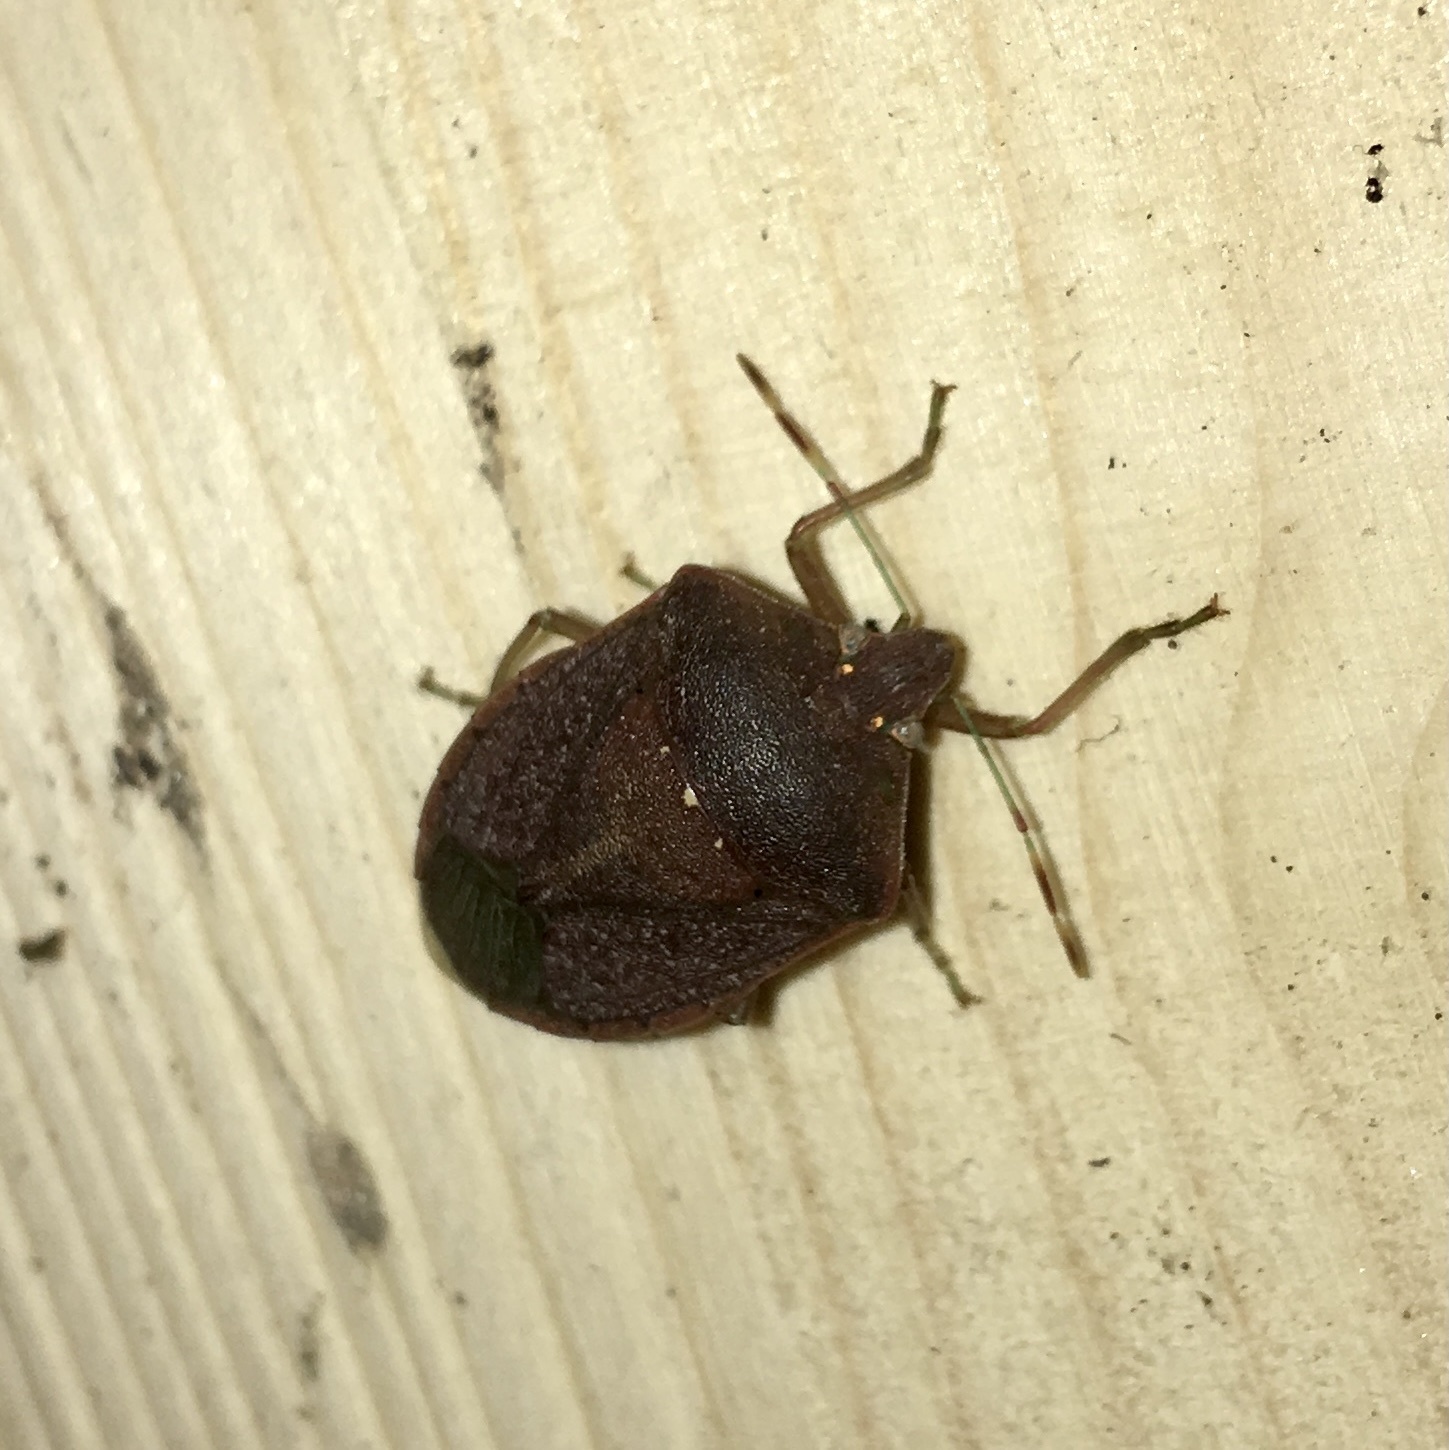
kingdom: Animalia
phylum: Arthropoda
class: Insecta
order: Hemiptera
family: Pentatomidae
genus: Nezara
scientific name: Nezara viridula
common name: Southern green stink bug
